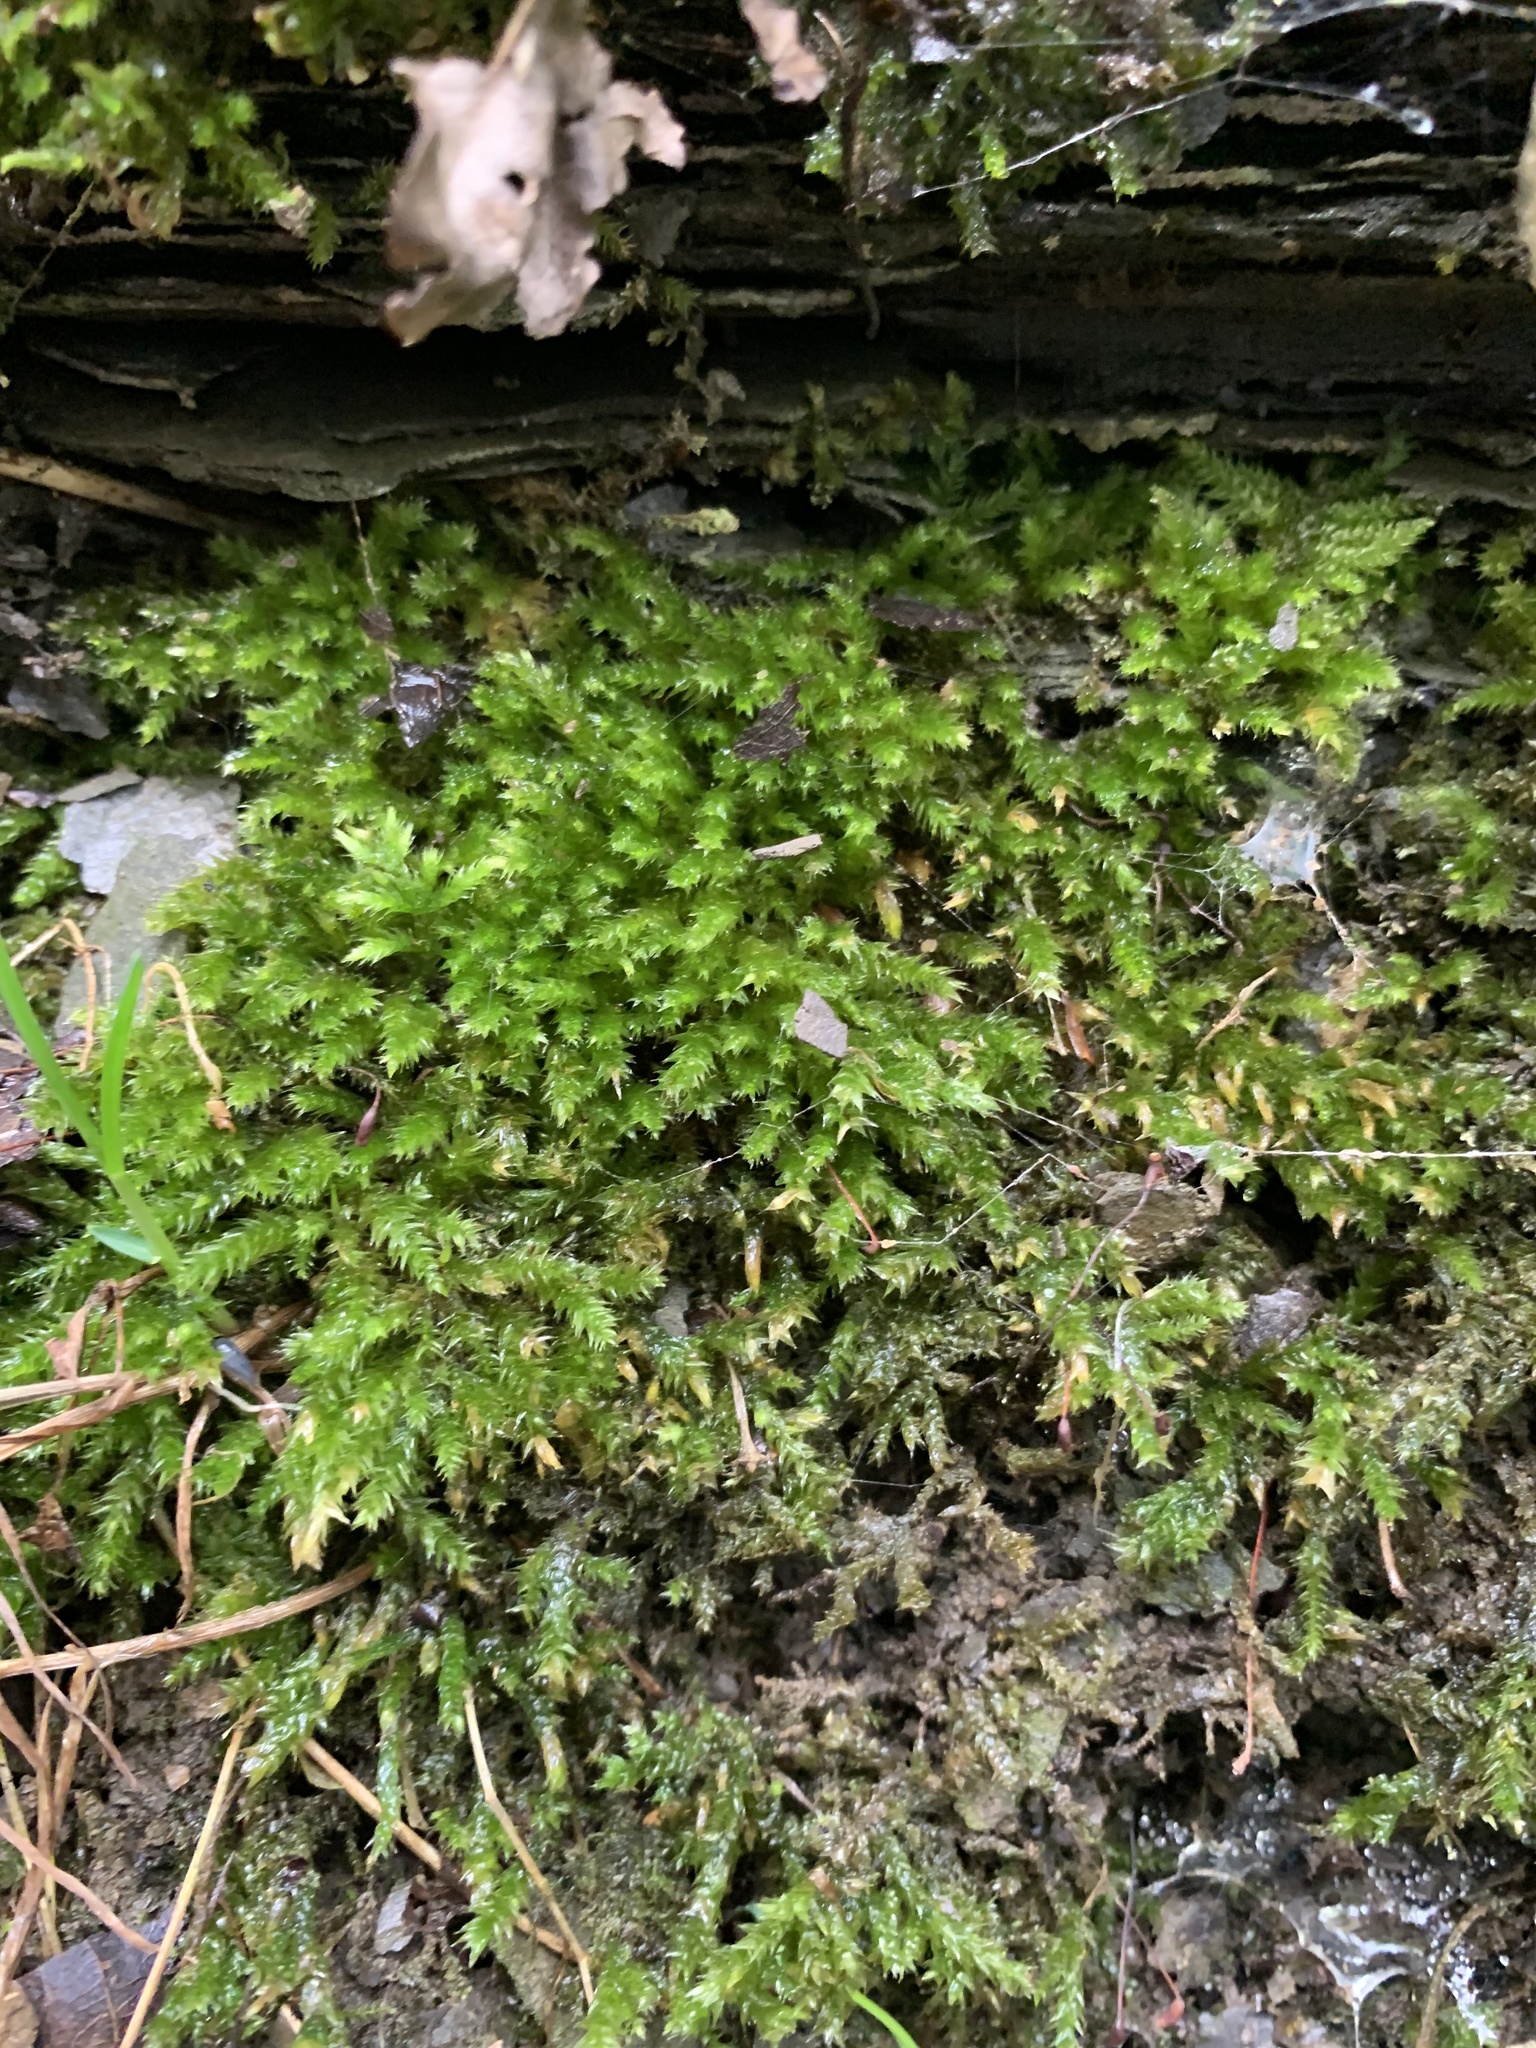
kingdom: Plantae
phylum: Bryophyta
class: Bryopsida
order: Hypnales
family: Brachytheciaceae
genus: Eurhynchium
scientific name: Eurhynchium striatum
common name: Common striated feather-moss
